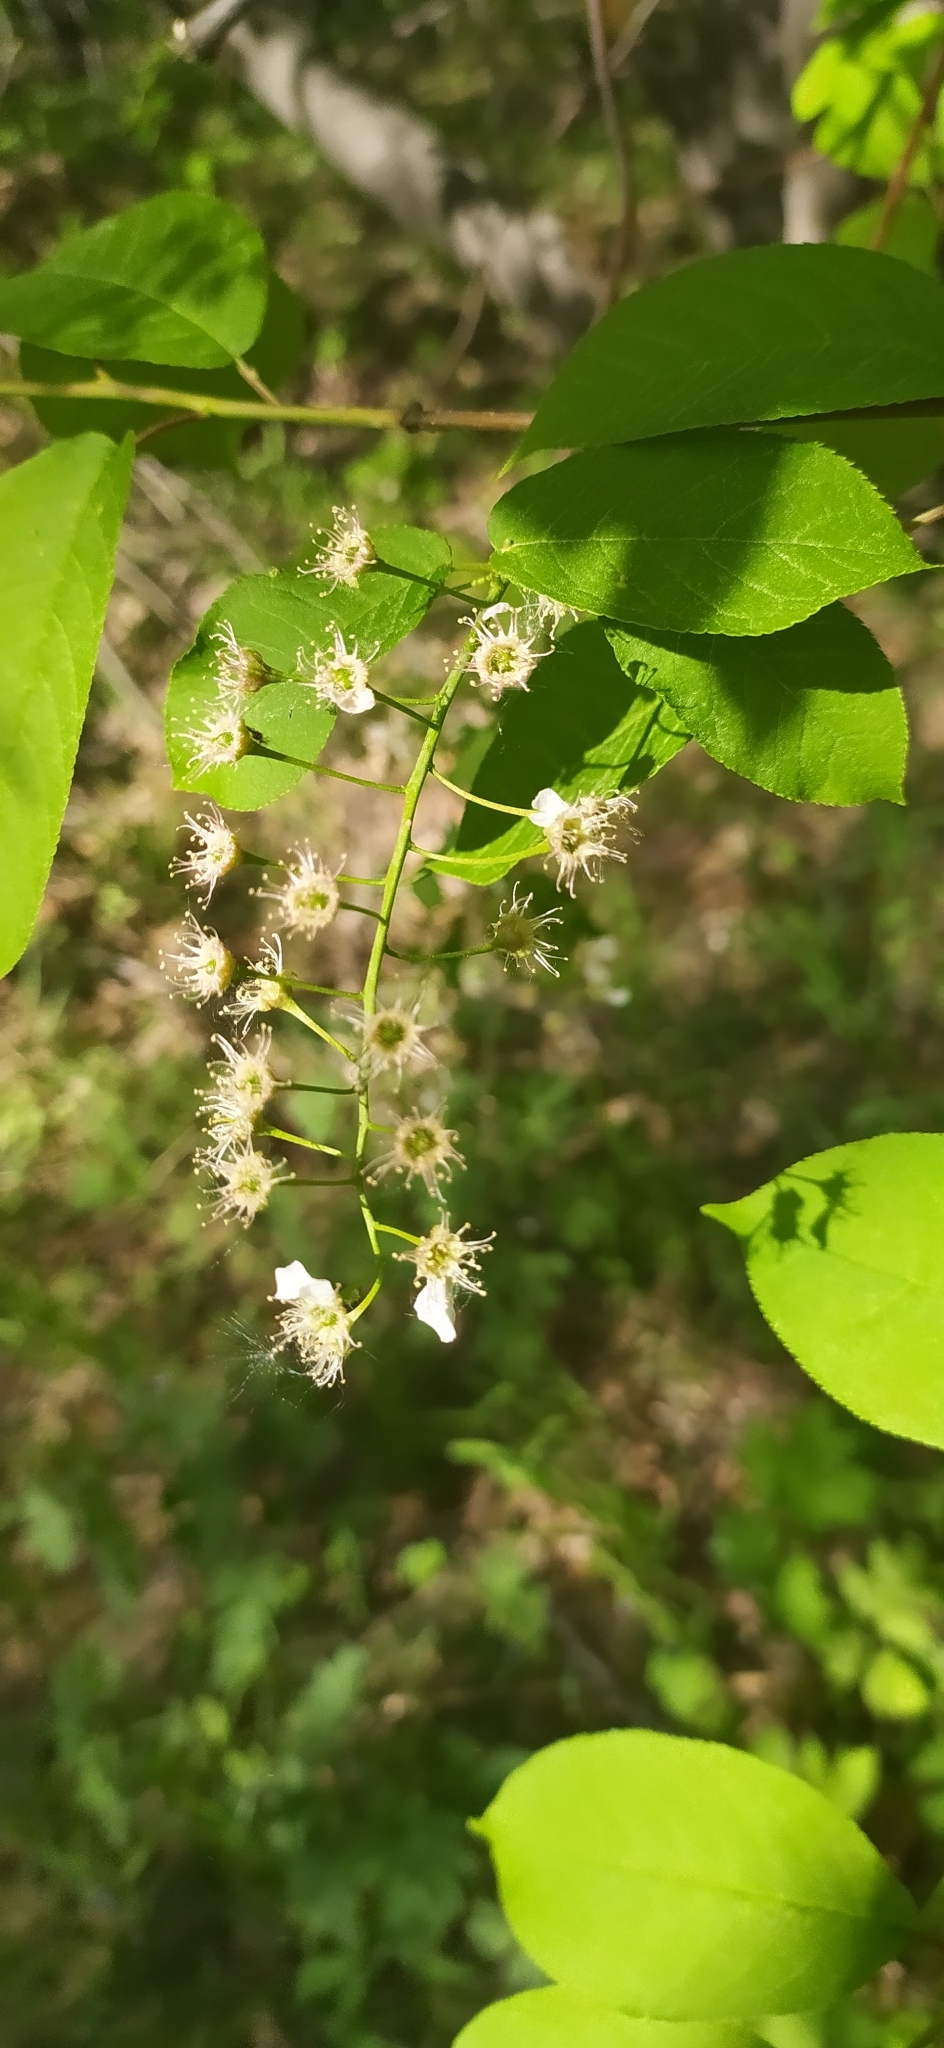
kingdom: Plantae
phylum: Tracheophyta
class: Magnoliopsida
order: Rosales
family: Rosaceae
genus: Prunus
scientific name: Prunus padus
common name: Bird cherry
